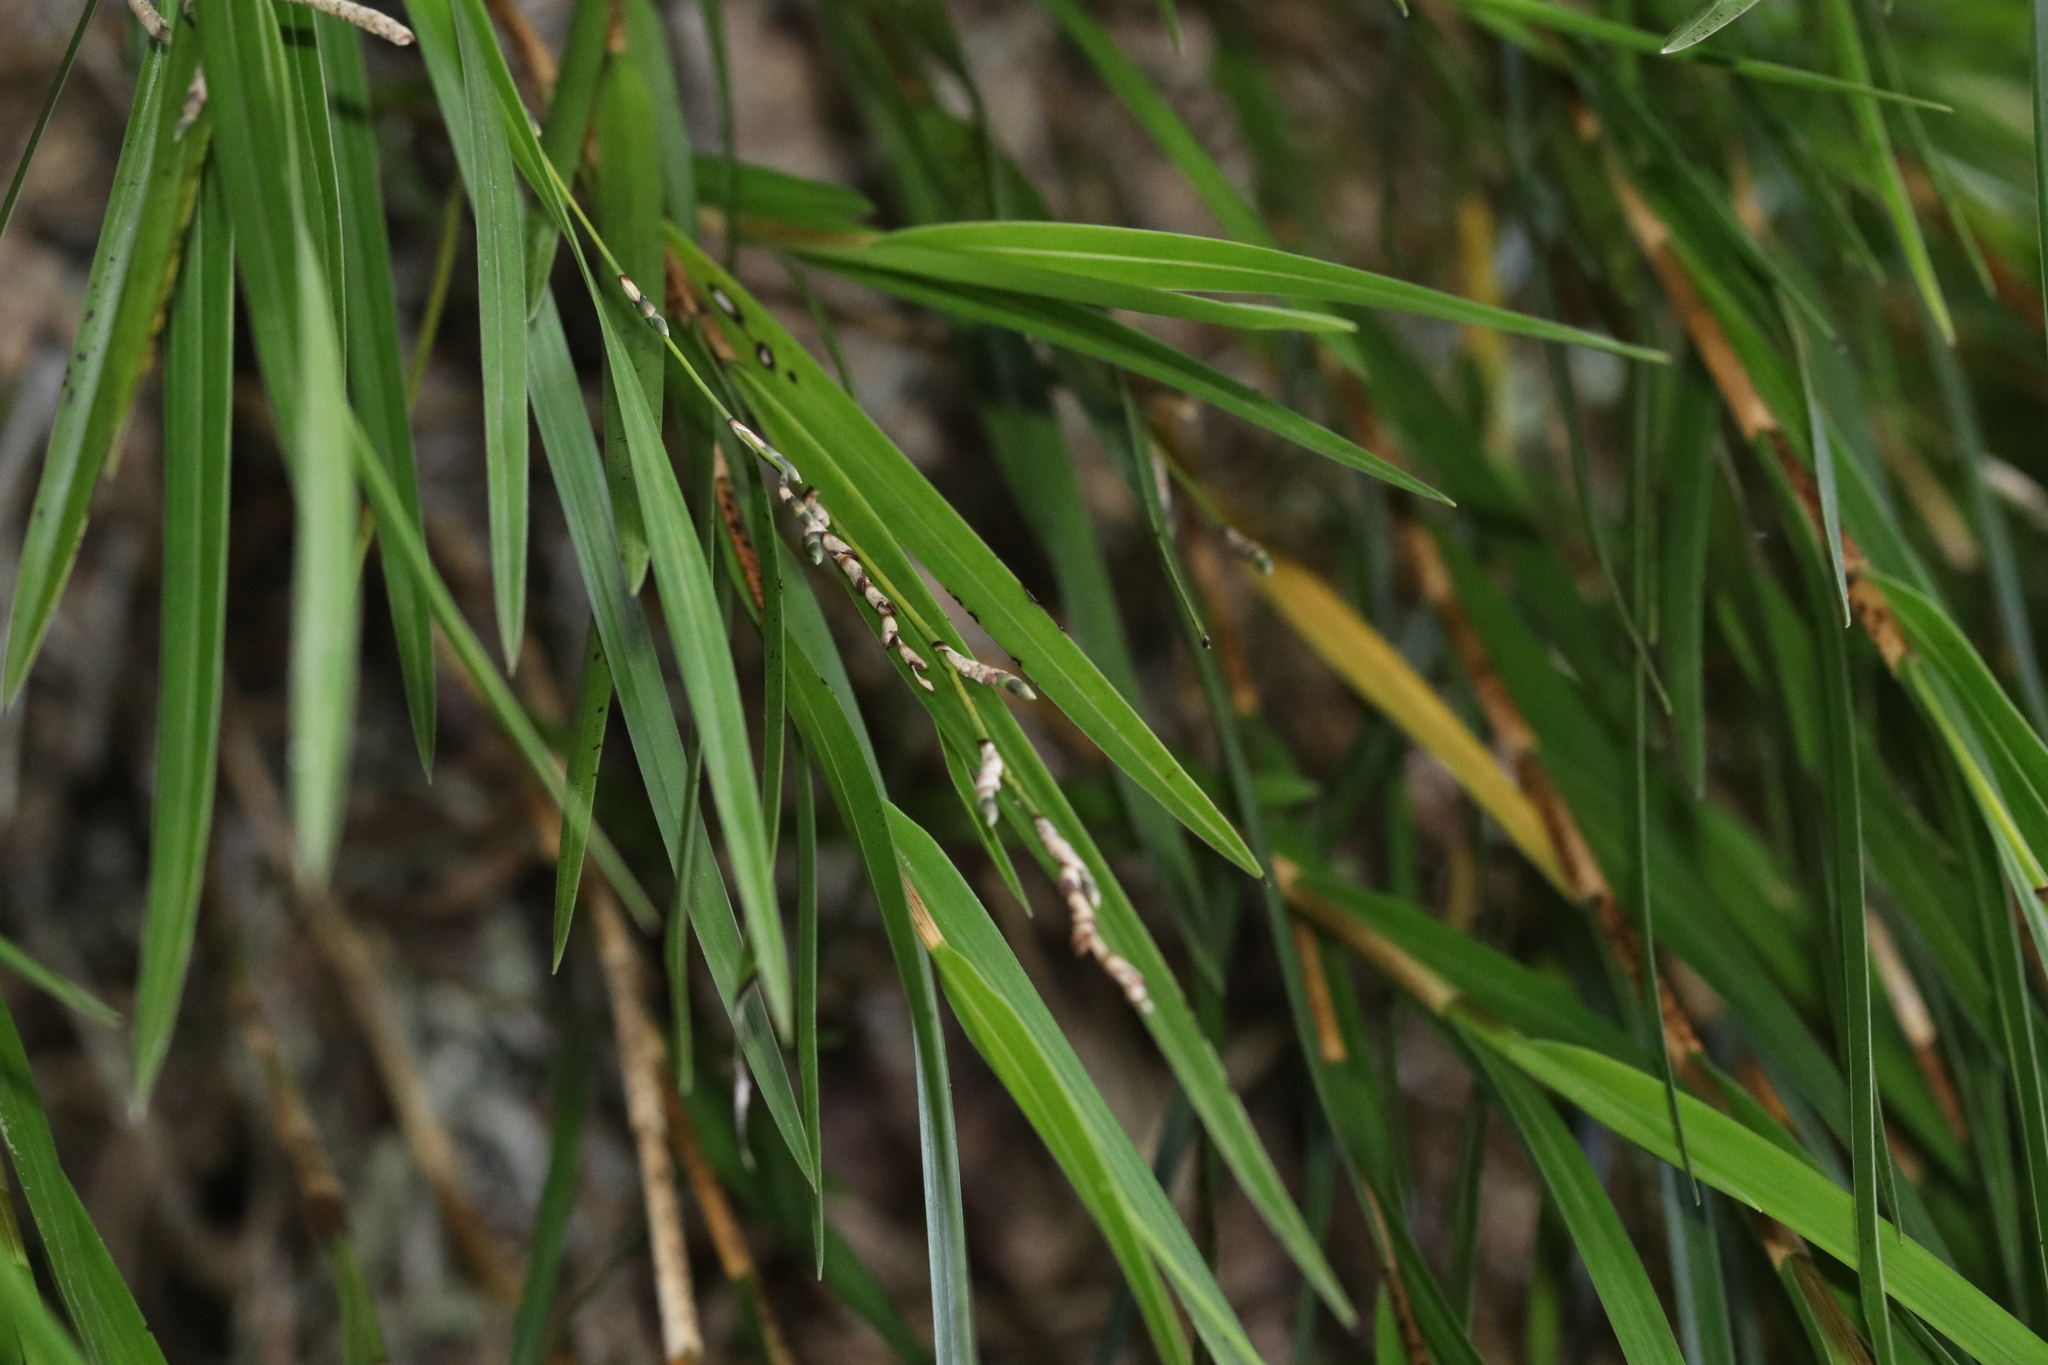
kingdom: Plantae
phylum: Tracheophyta
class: Liliopsida
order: Asparagales
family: Orchidaceae
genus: Earina
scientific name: Earina mucronata
